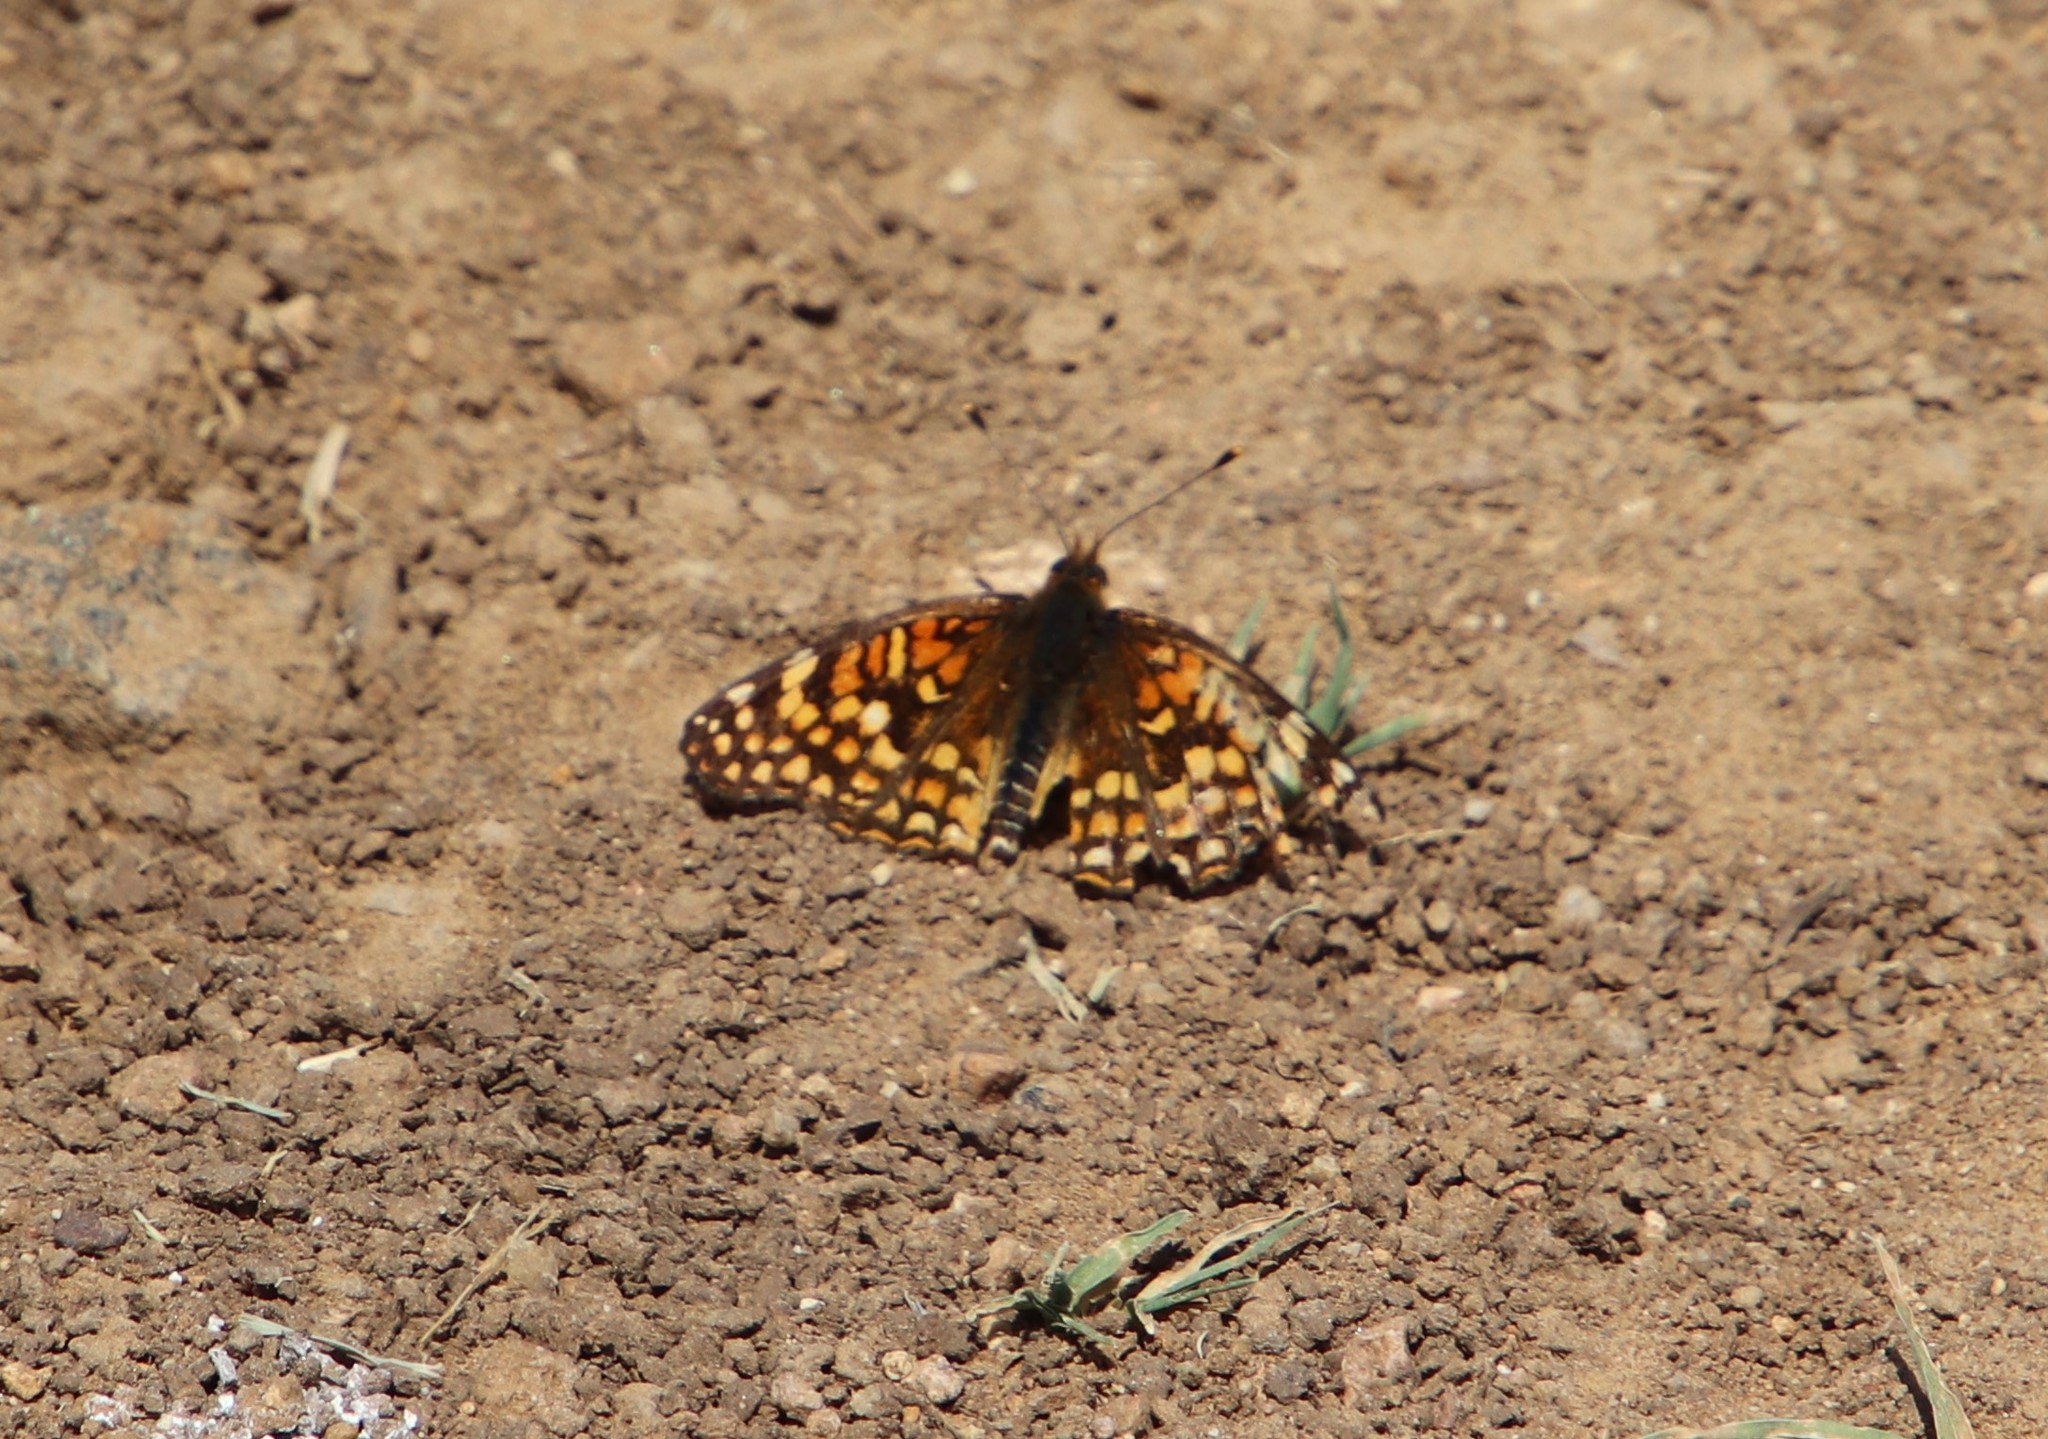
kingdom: Animalia
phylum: Arthropoda
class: Insecta
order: Lepidoptera
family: Nymphalidae
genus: Chlosyne
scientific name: Chlosyne gabbii
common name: Gabb's checkerspot
